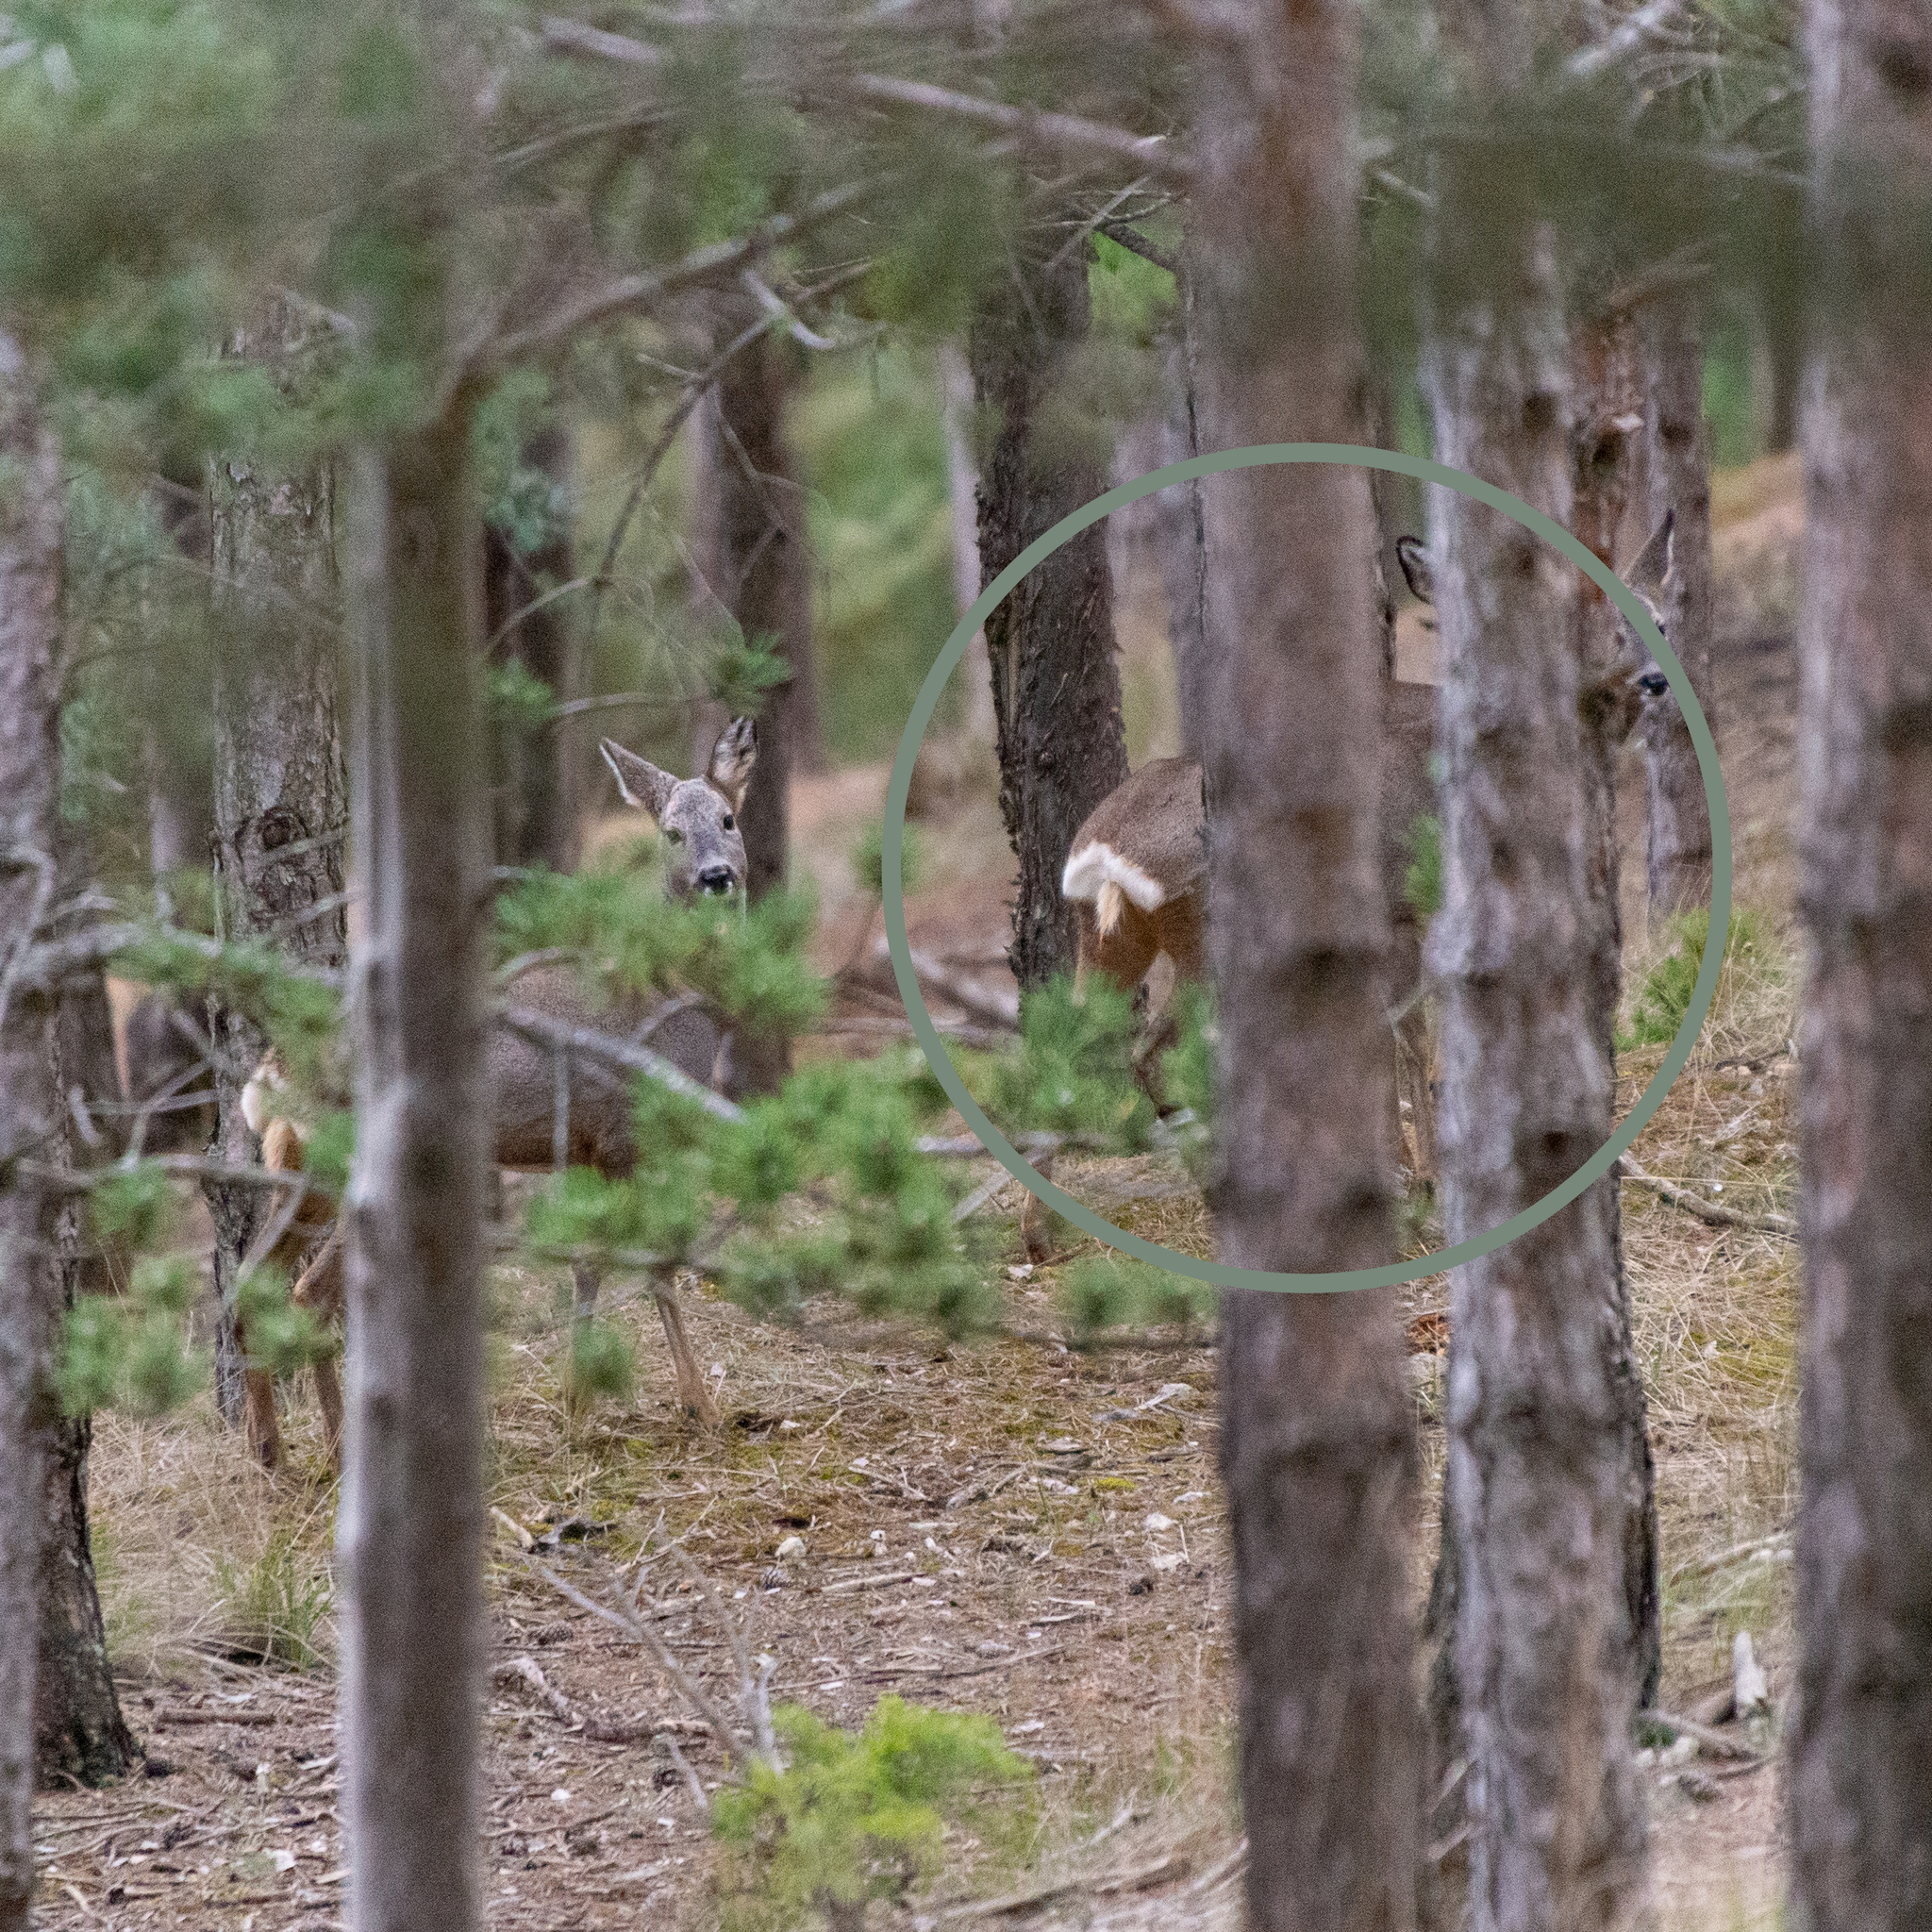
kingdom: Animalia
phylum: Chordata
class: Mammalia
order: Artiodactyla
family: Cervidae
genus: Capreolus
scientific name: Capreolus capreolus
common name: Western roe deer
